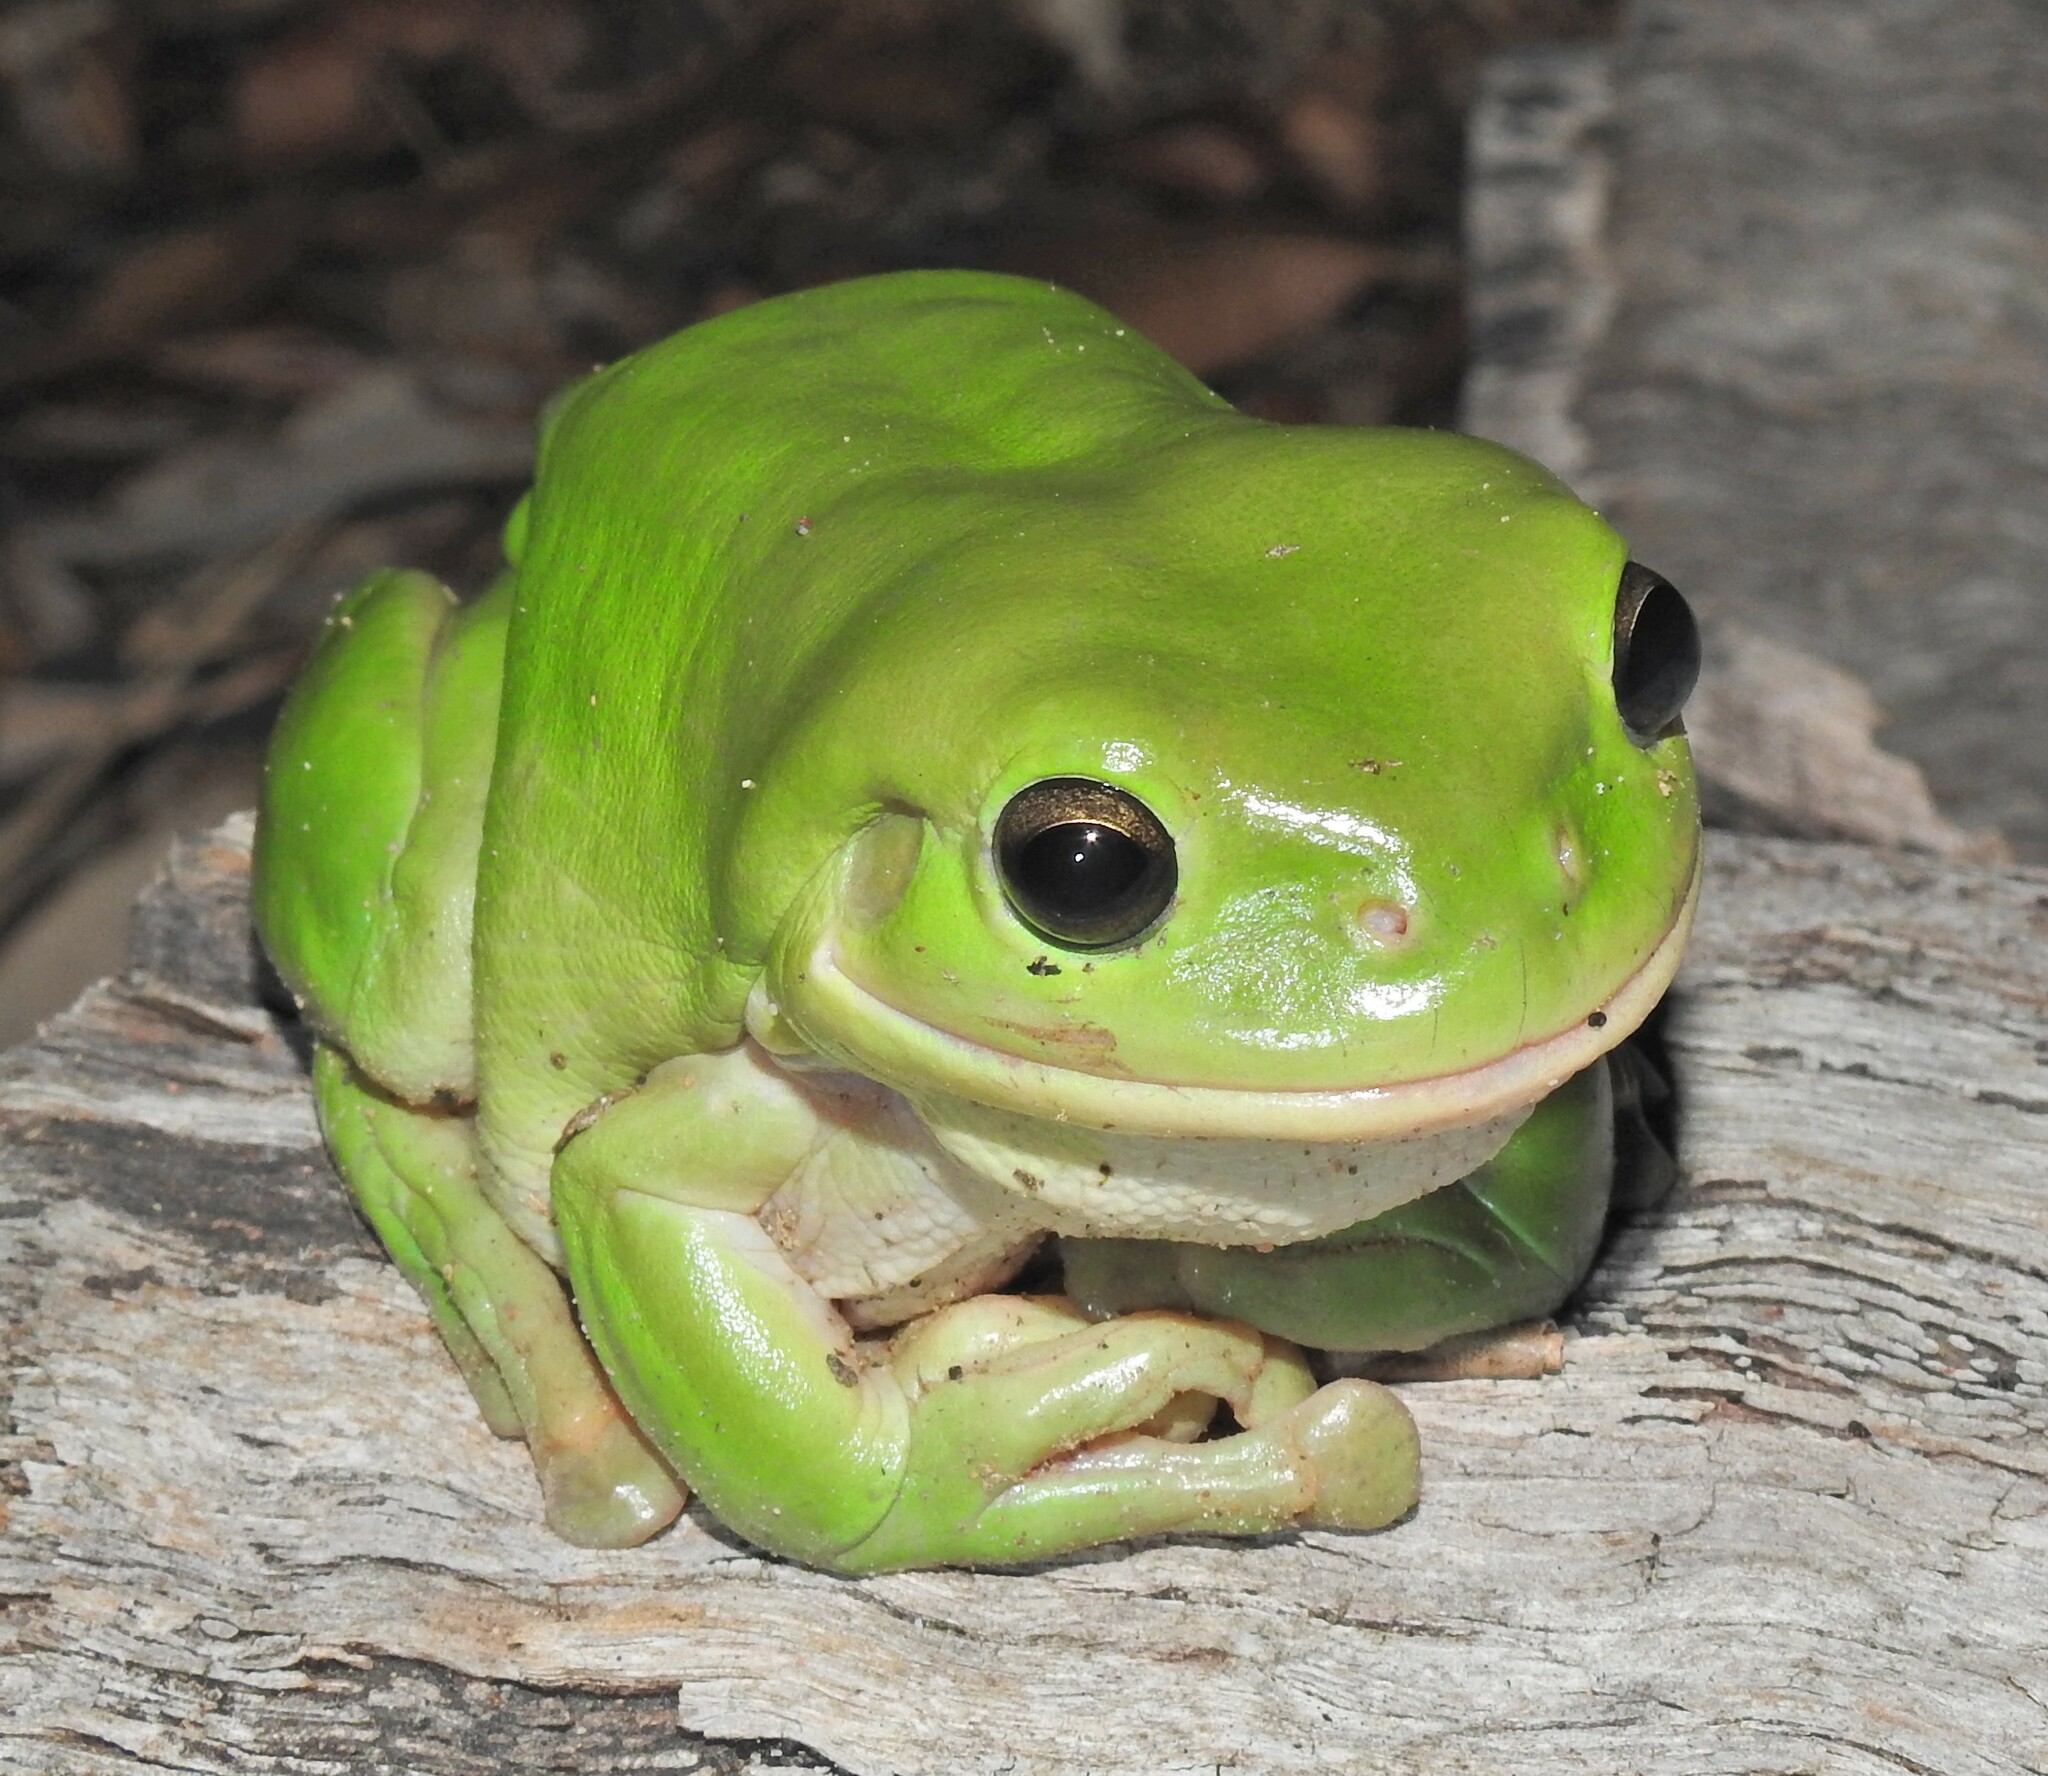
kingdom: Animalia
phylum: Chordata
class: Amphibia
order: Anura
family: Pelodryadidae
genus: Ranoidea
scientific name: Ranoidea caerulea
